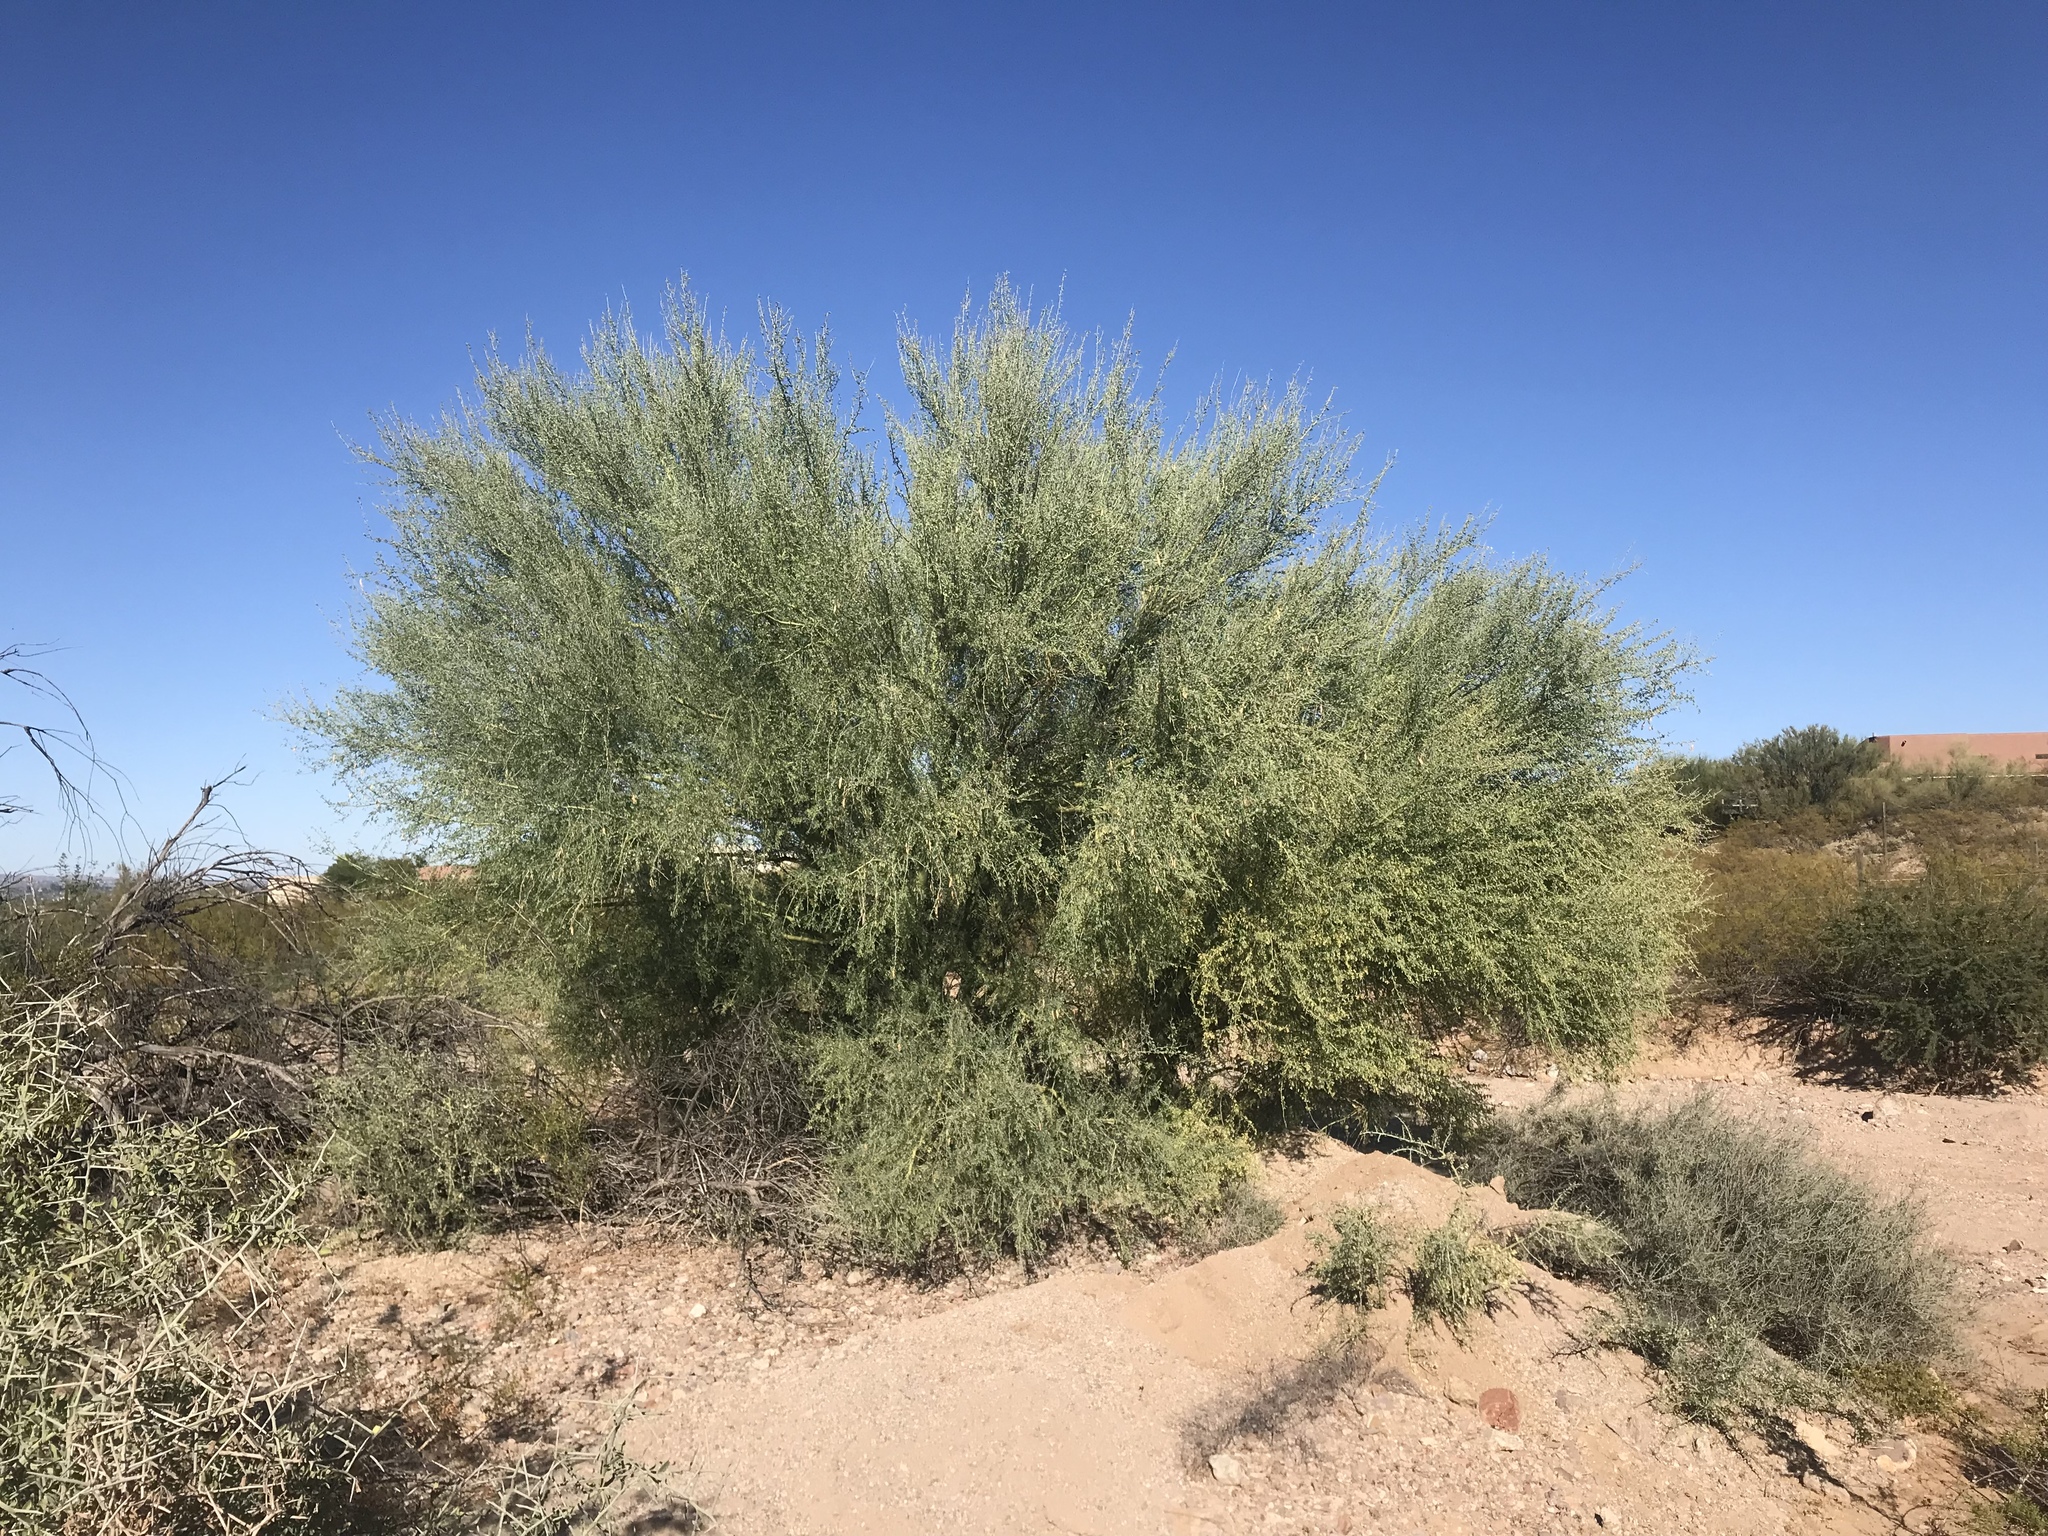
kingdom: Plantae
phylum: Tracheophyta
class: Magnoliopsida
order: Fabales
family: Fabaceae
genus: Parkinsonia
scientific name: Parkinsonia florida
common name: Blue paloverde
